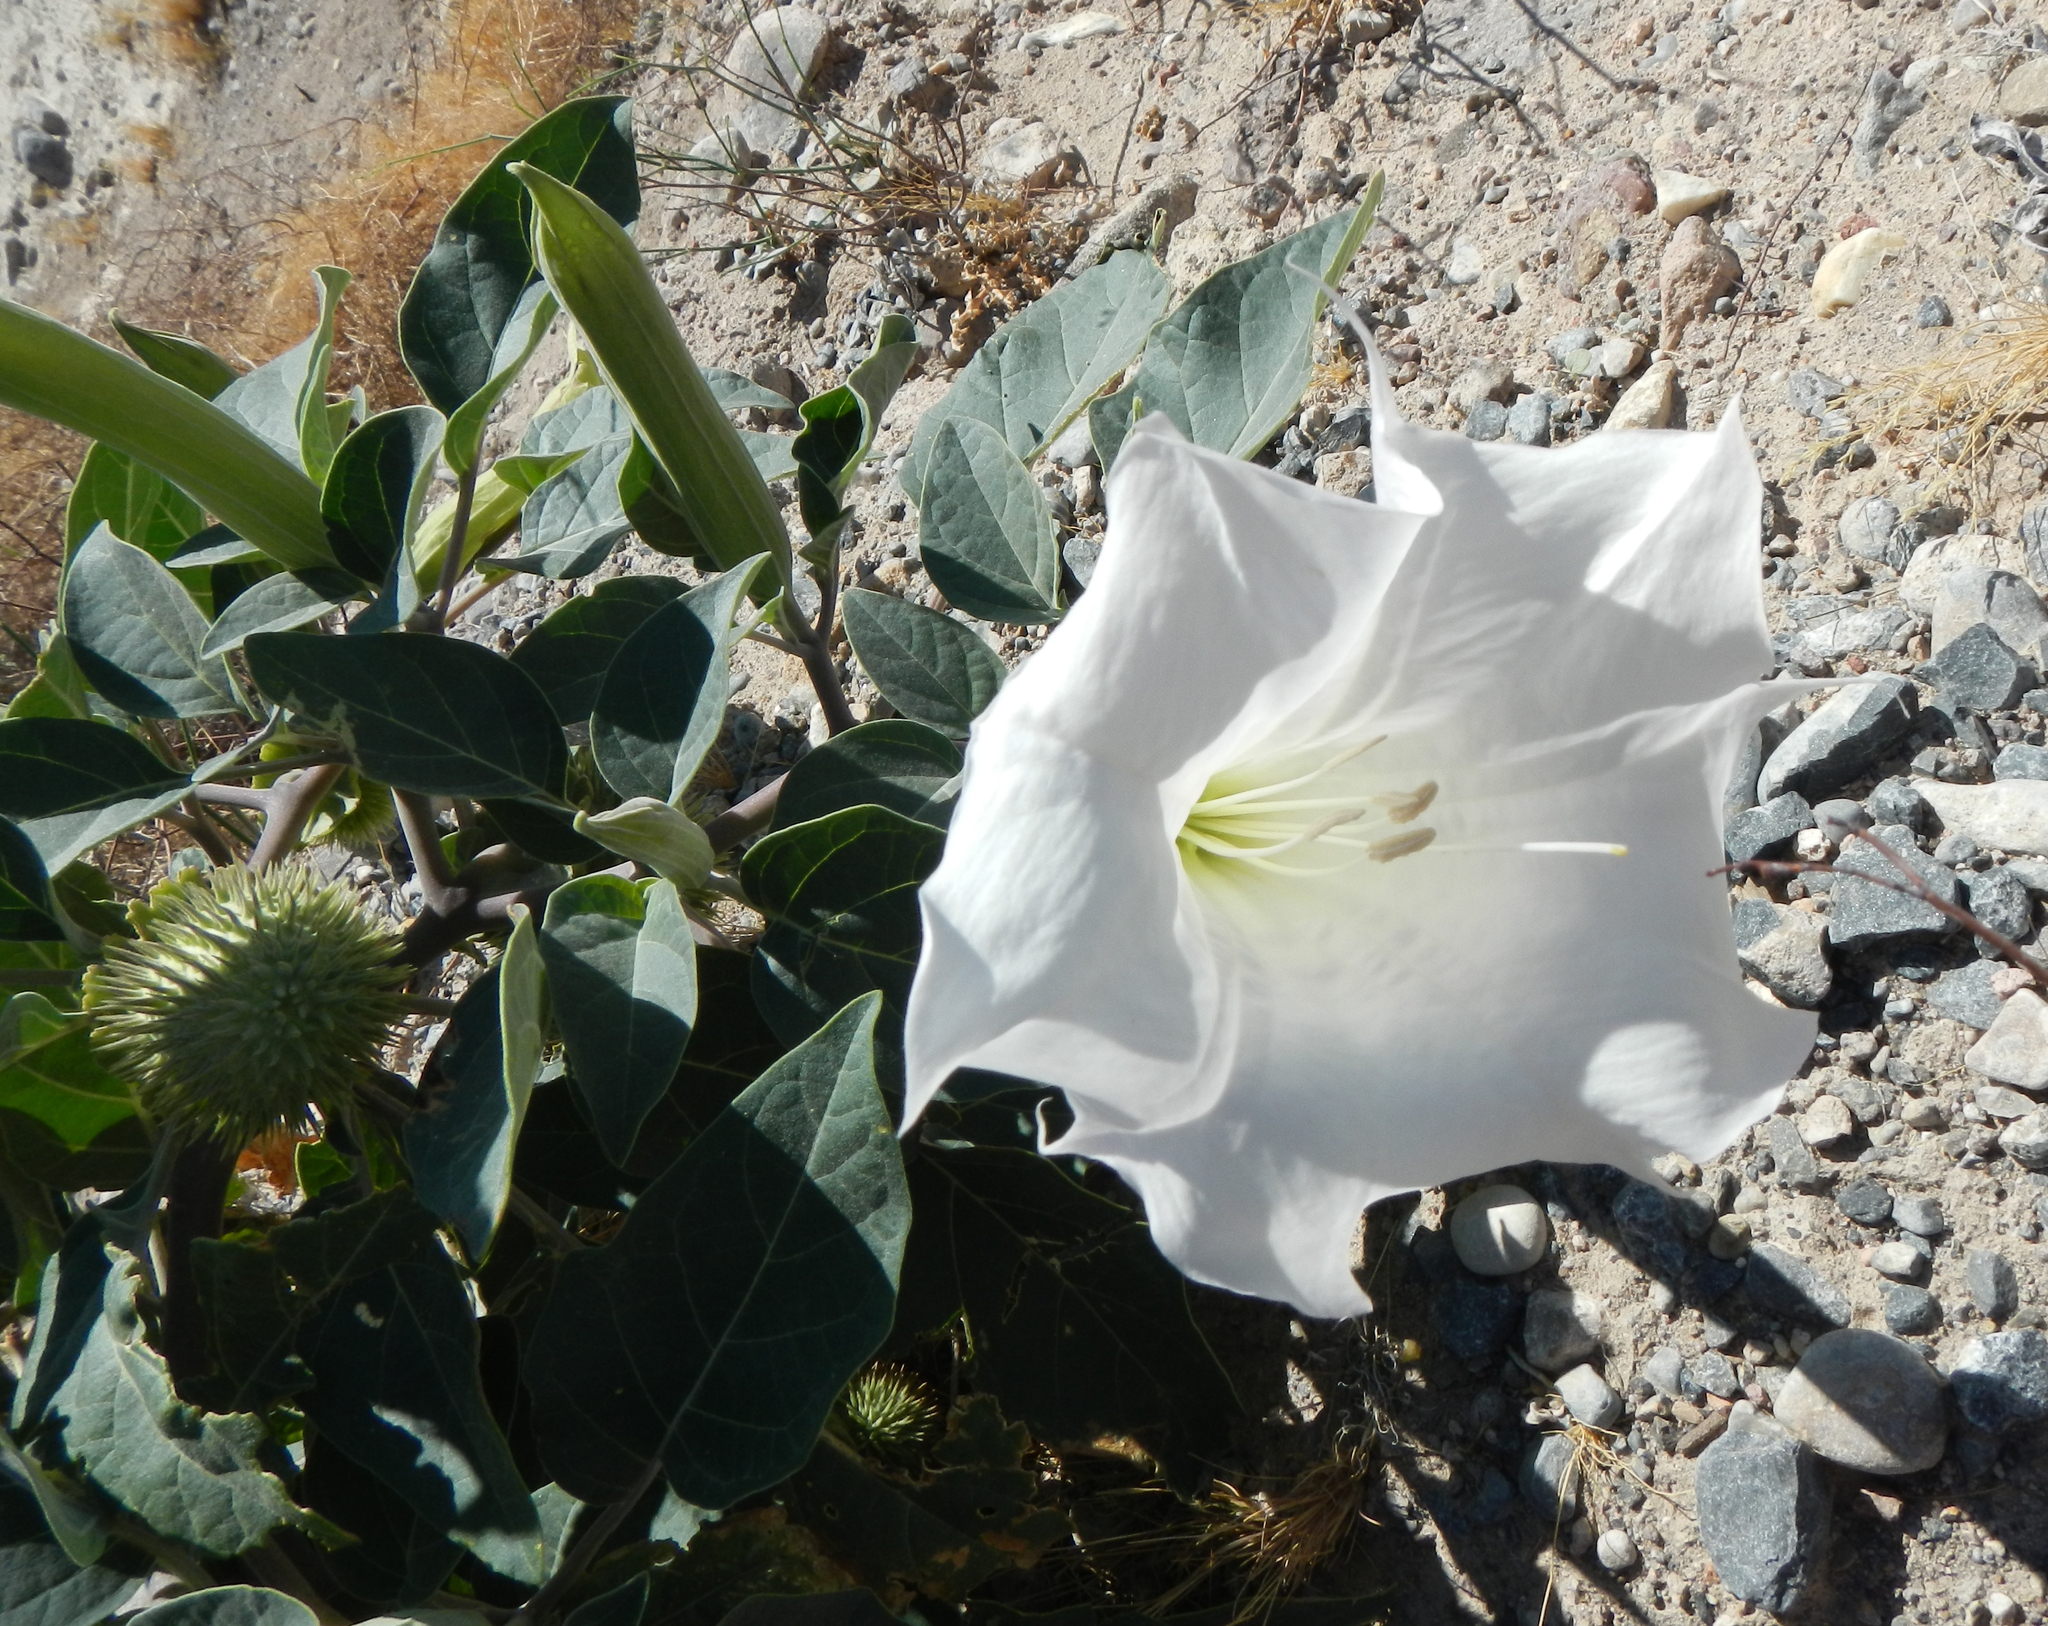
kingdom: Plantae
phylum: Tracheophyta
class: Magnoliopsida
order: Solanales
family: Solanaceae
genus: Datura
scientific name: Datura wrightii
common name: Sacred thorn-apple
